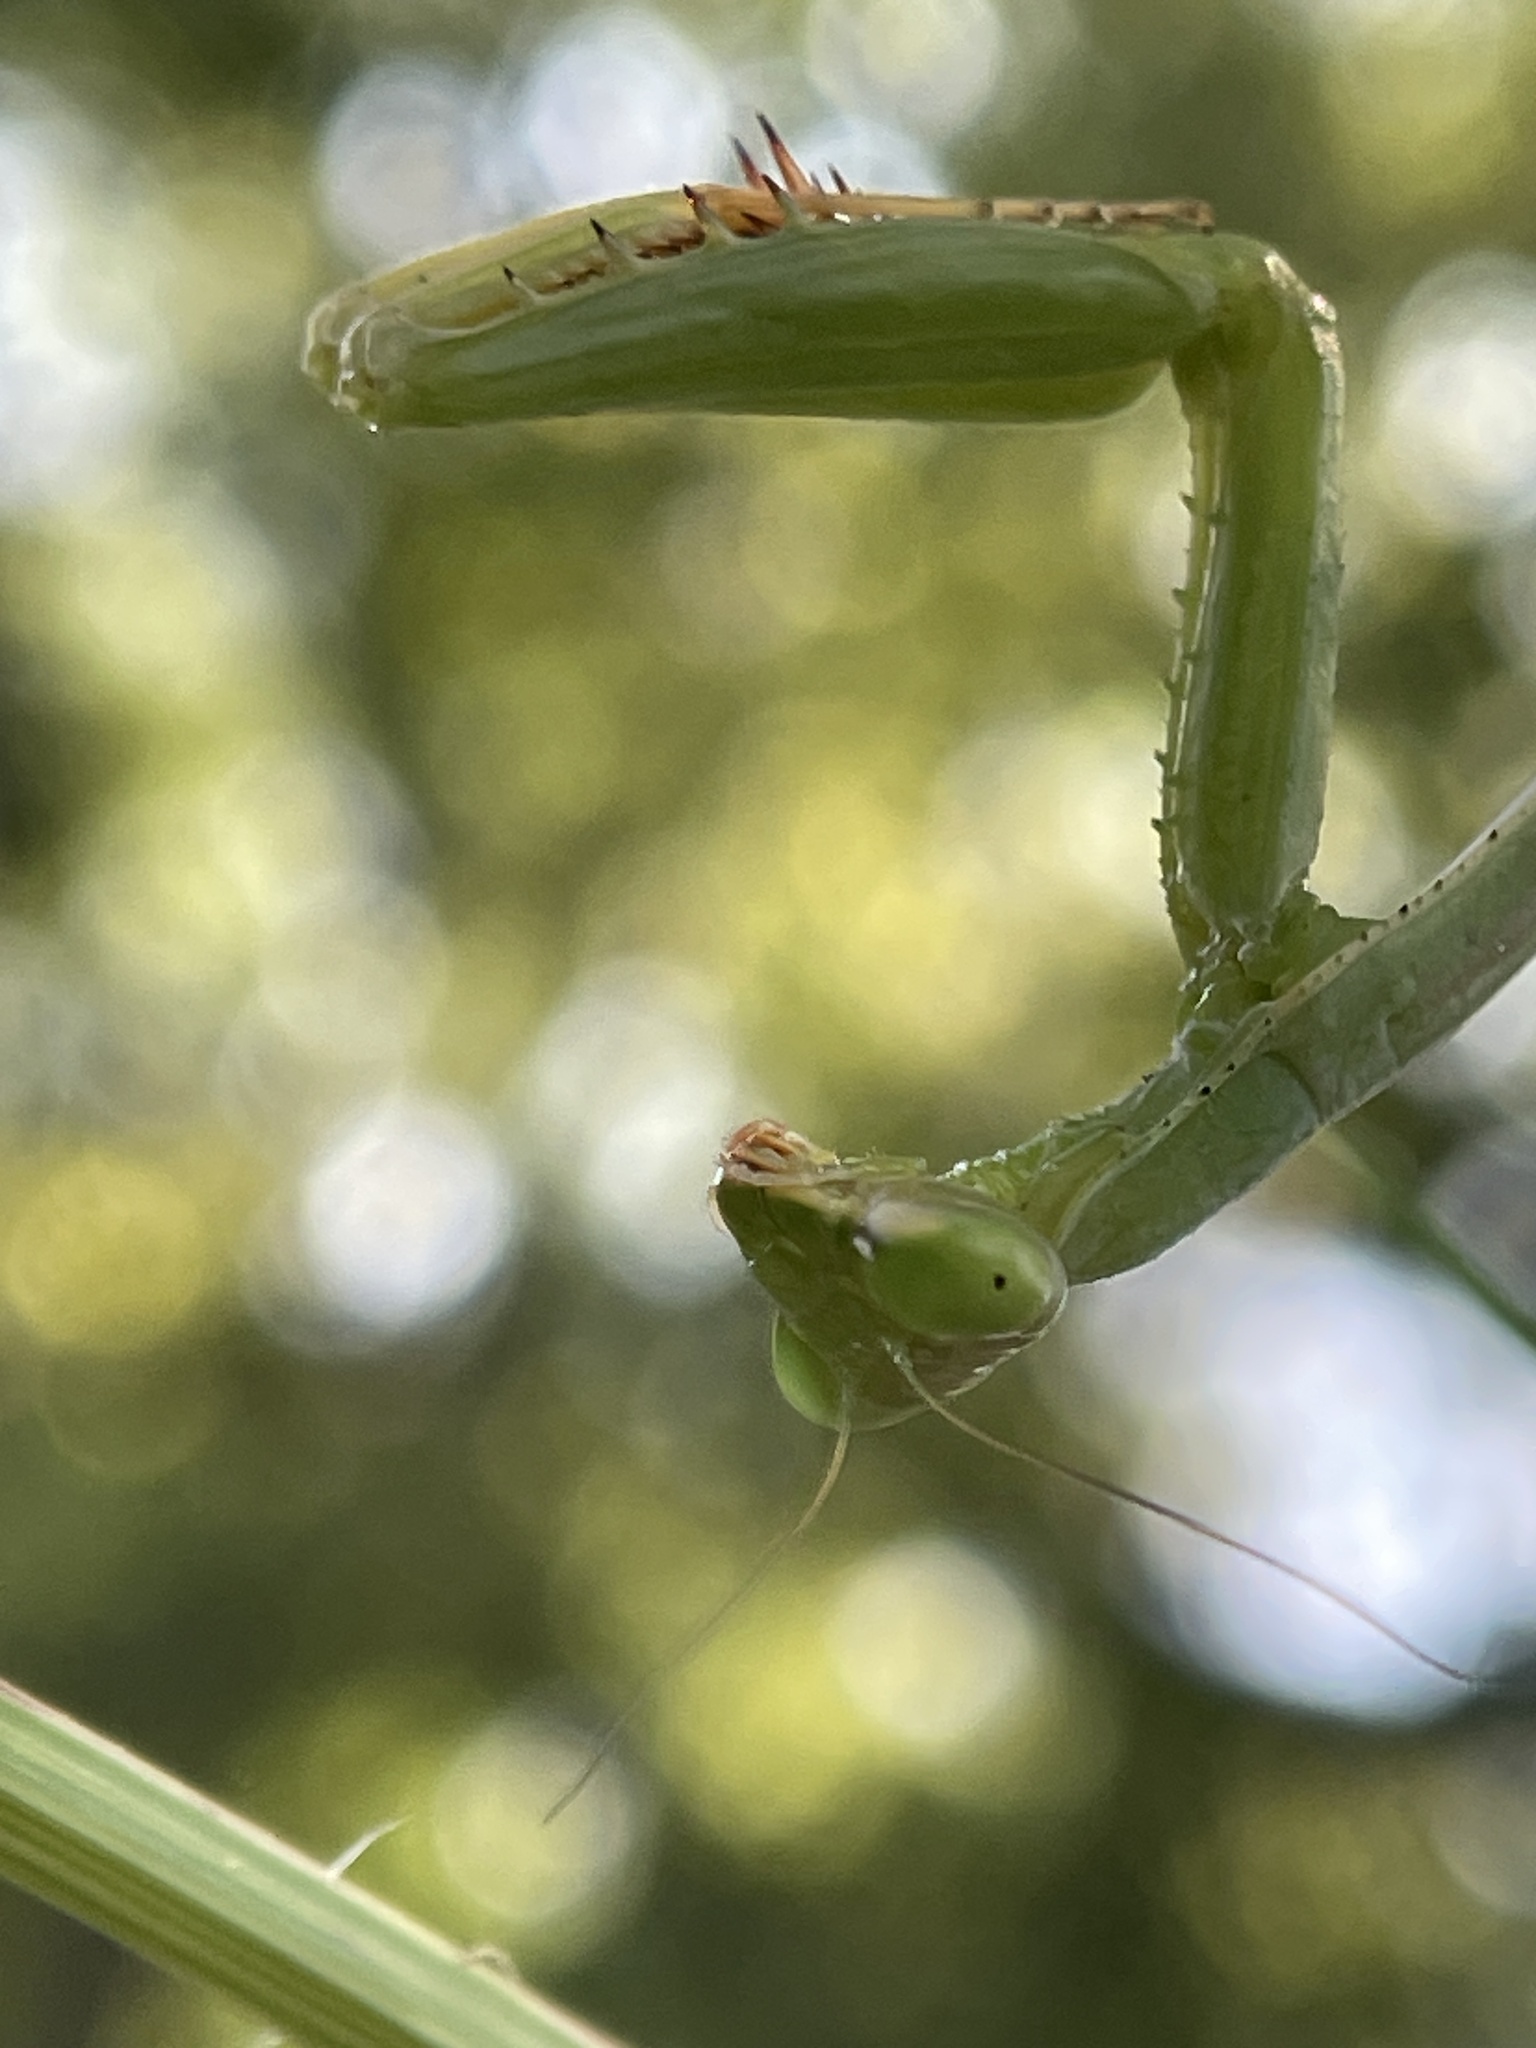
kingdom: Animalia
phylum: Arthropoda
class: Insecta
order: Mantodea
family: Mantidae
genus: Stagmomantis
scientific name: Stagmomantis carolina
